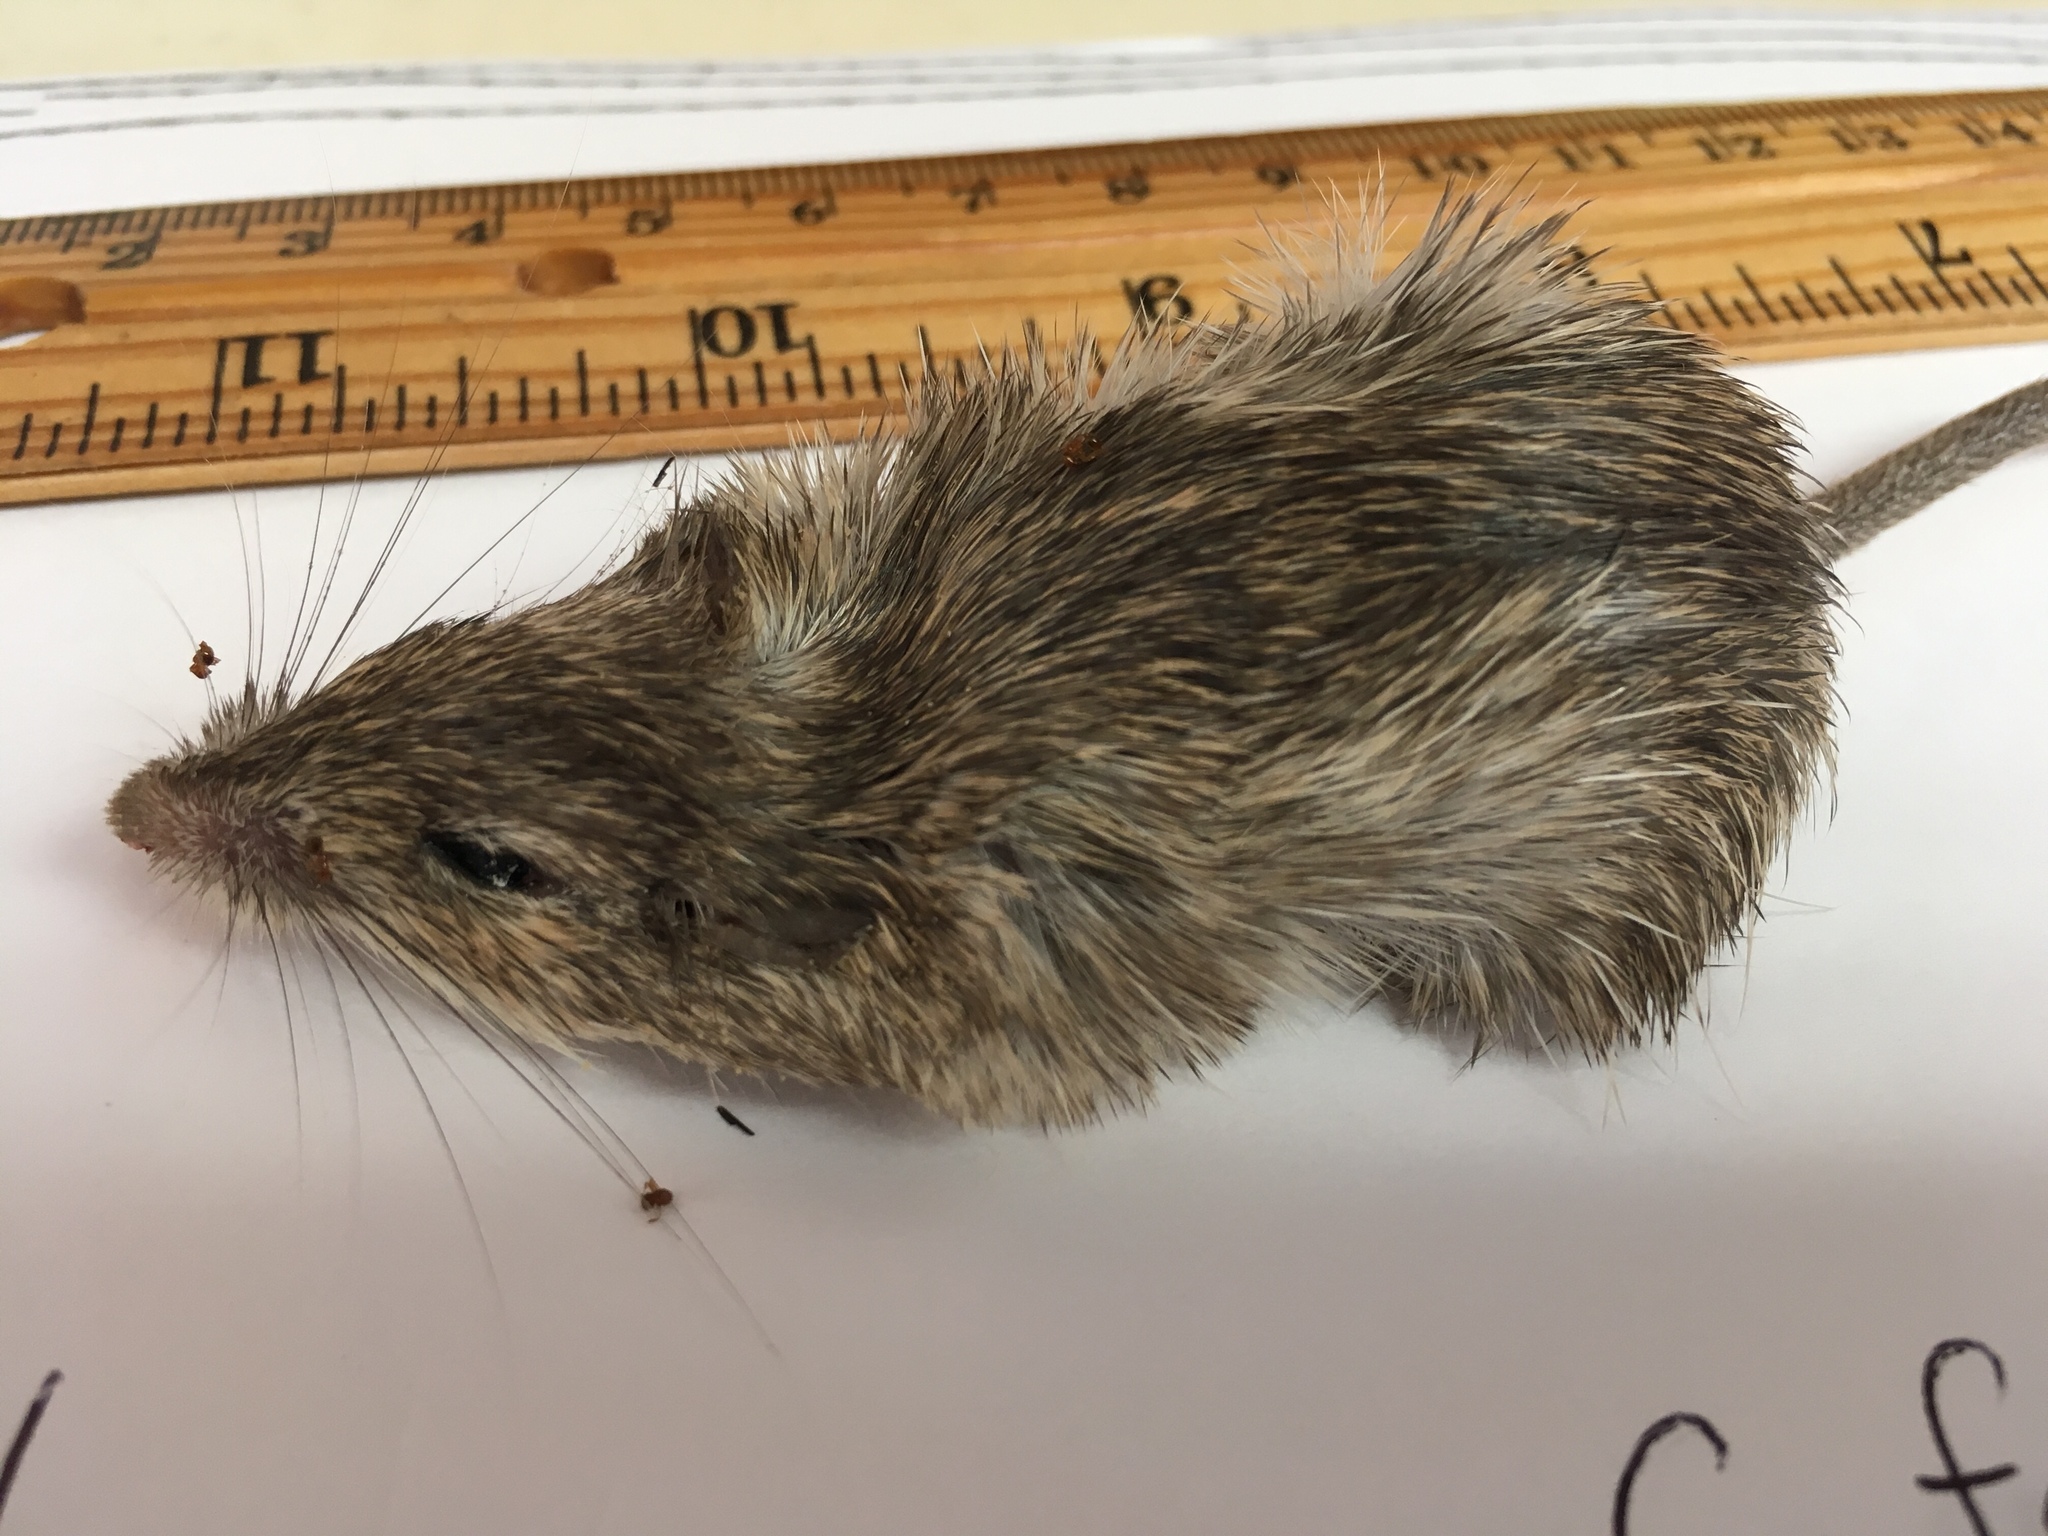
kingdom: Animalia
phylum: Chordata
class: Mammalia
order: Rodentia
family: Heteromyidae
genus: Chaetodipus
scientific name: Chaetodipus fallax
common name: San diego pocket mouse
